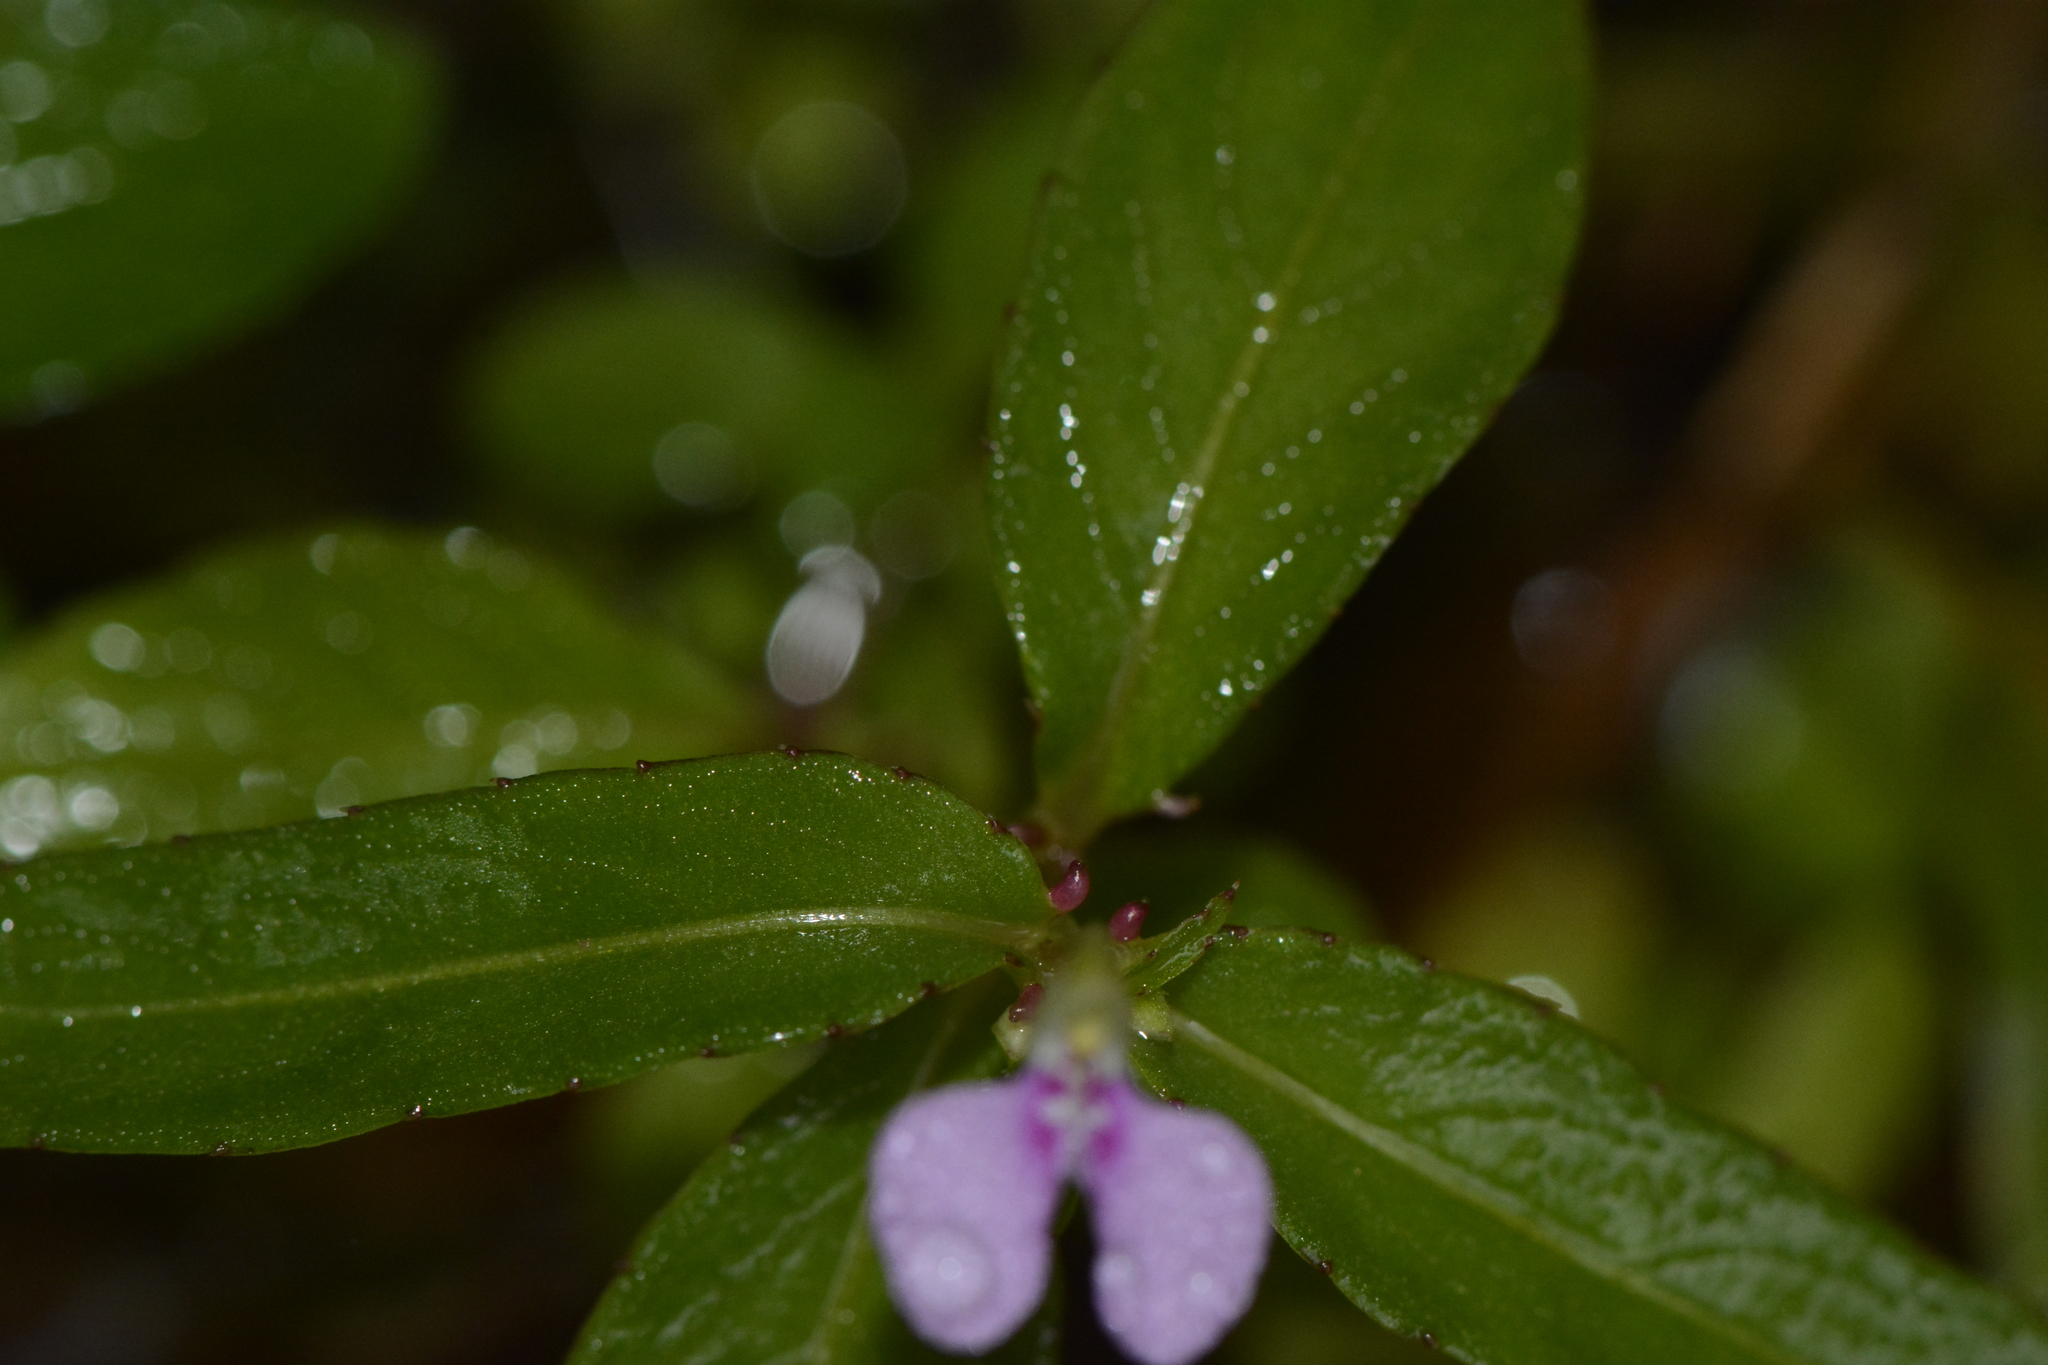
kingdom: Plantae
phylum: Tracheophyta
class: Magnoliopsida
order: Ericales
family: Balsaminaceae
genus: Impatiens
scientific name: Impatiens minor
